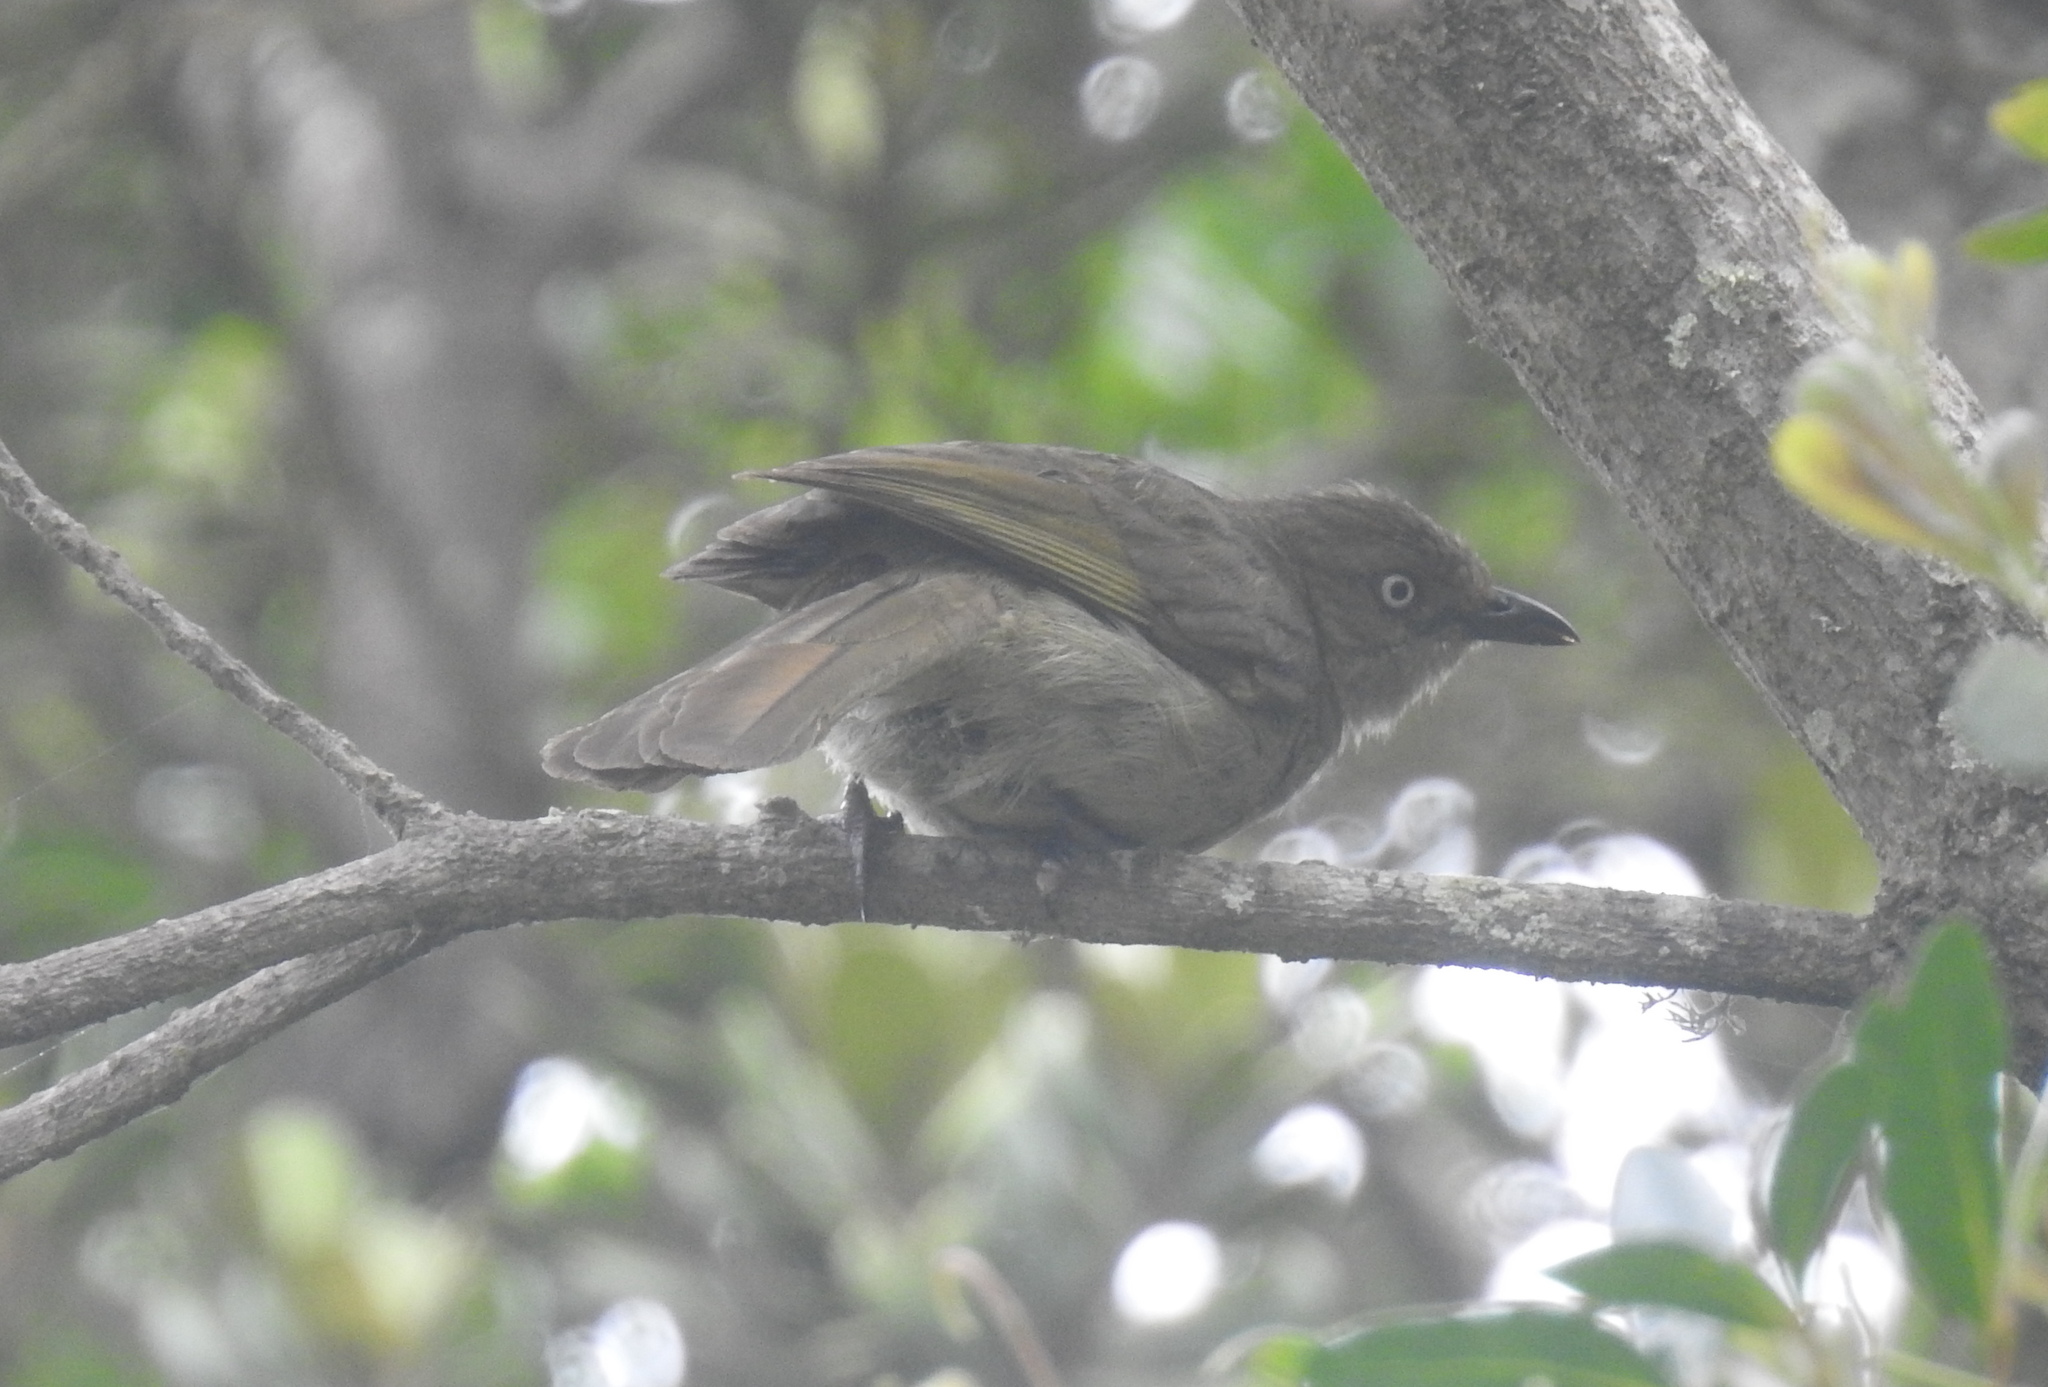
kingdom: Animalia
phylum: Chordata
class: Aves
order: Passeriformes
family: Pycnonotidae
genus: Andropadus
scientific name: Andropadus importunus
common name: Sombre greenbul
